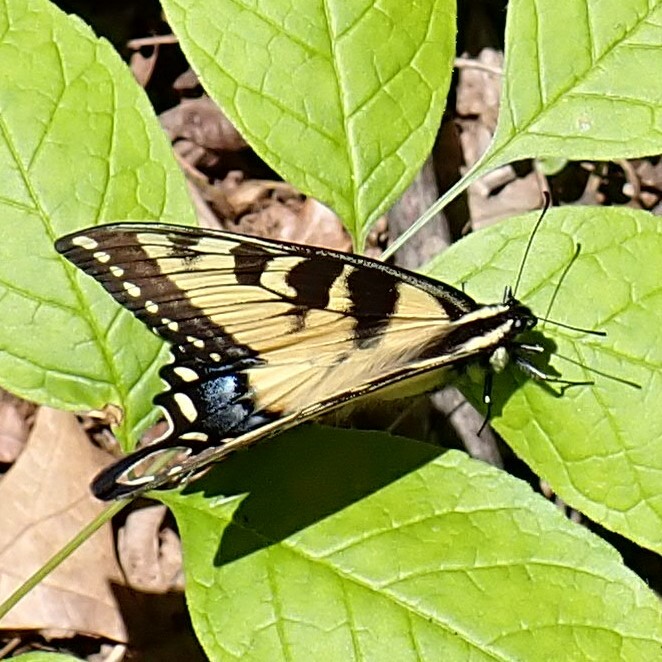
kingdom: Animalia
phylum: Arthropoda
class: Insecta
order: Lepidoptera
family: Papilionidae
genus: Papilio
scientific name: Papilio glaucus
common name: Tiger swallowtail
